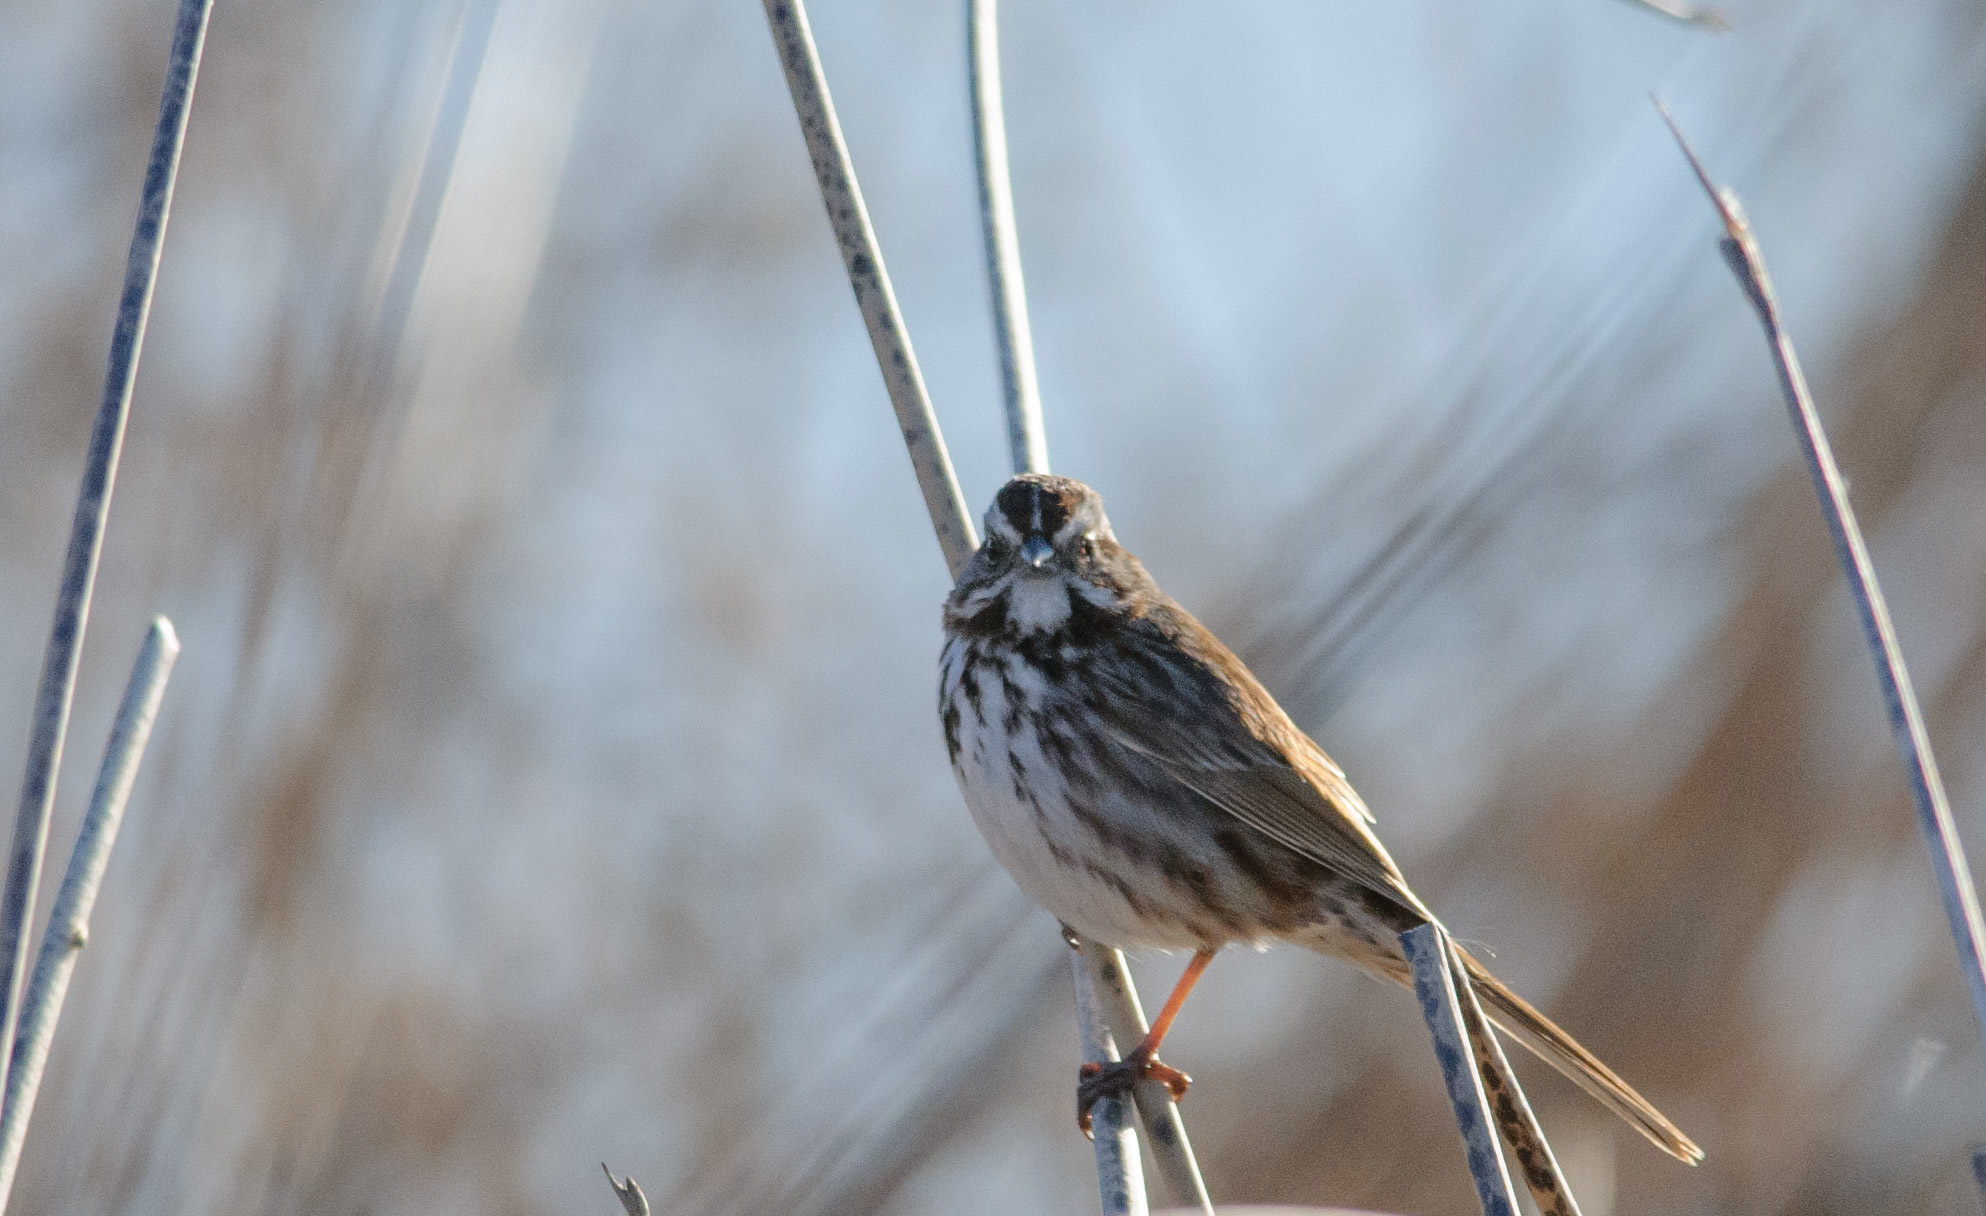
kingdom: Animalia
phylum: Chordata
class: Aves
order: Passeriformes
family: Passerellidae
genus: Melospiza
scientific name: Melospiza melodia
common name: Song sparrow
